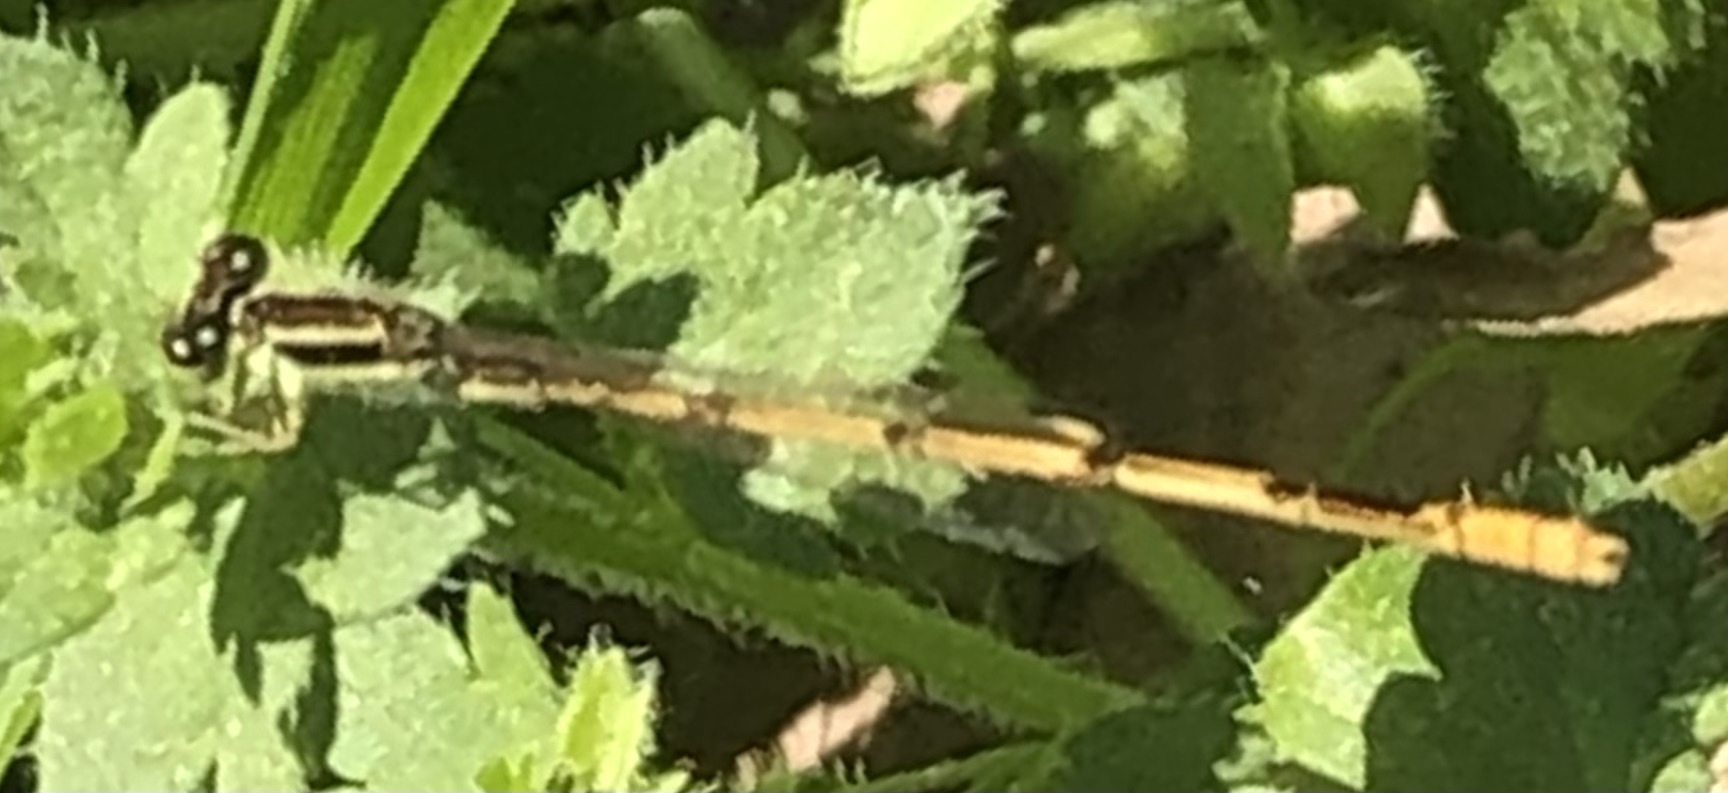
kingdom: Animalia
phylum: Arthropoda
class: Insecta
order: Odonata
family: Coenagrionidae
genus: Ischnura
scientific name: Ischnura hastata
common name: Citrine forktail
